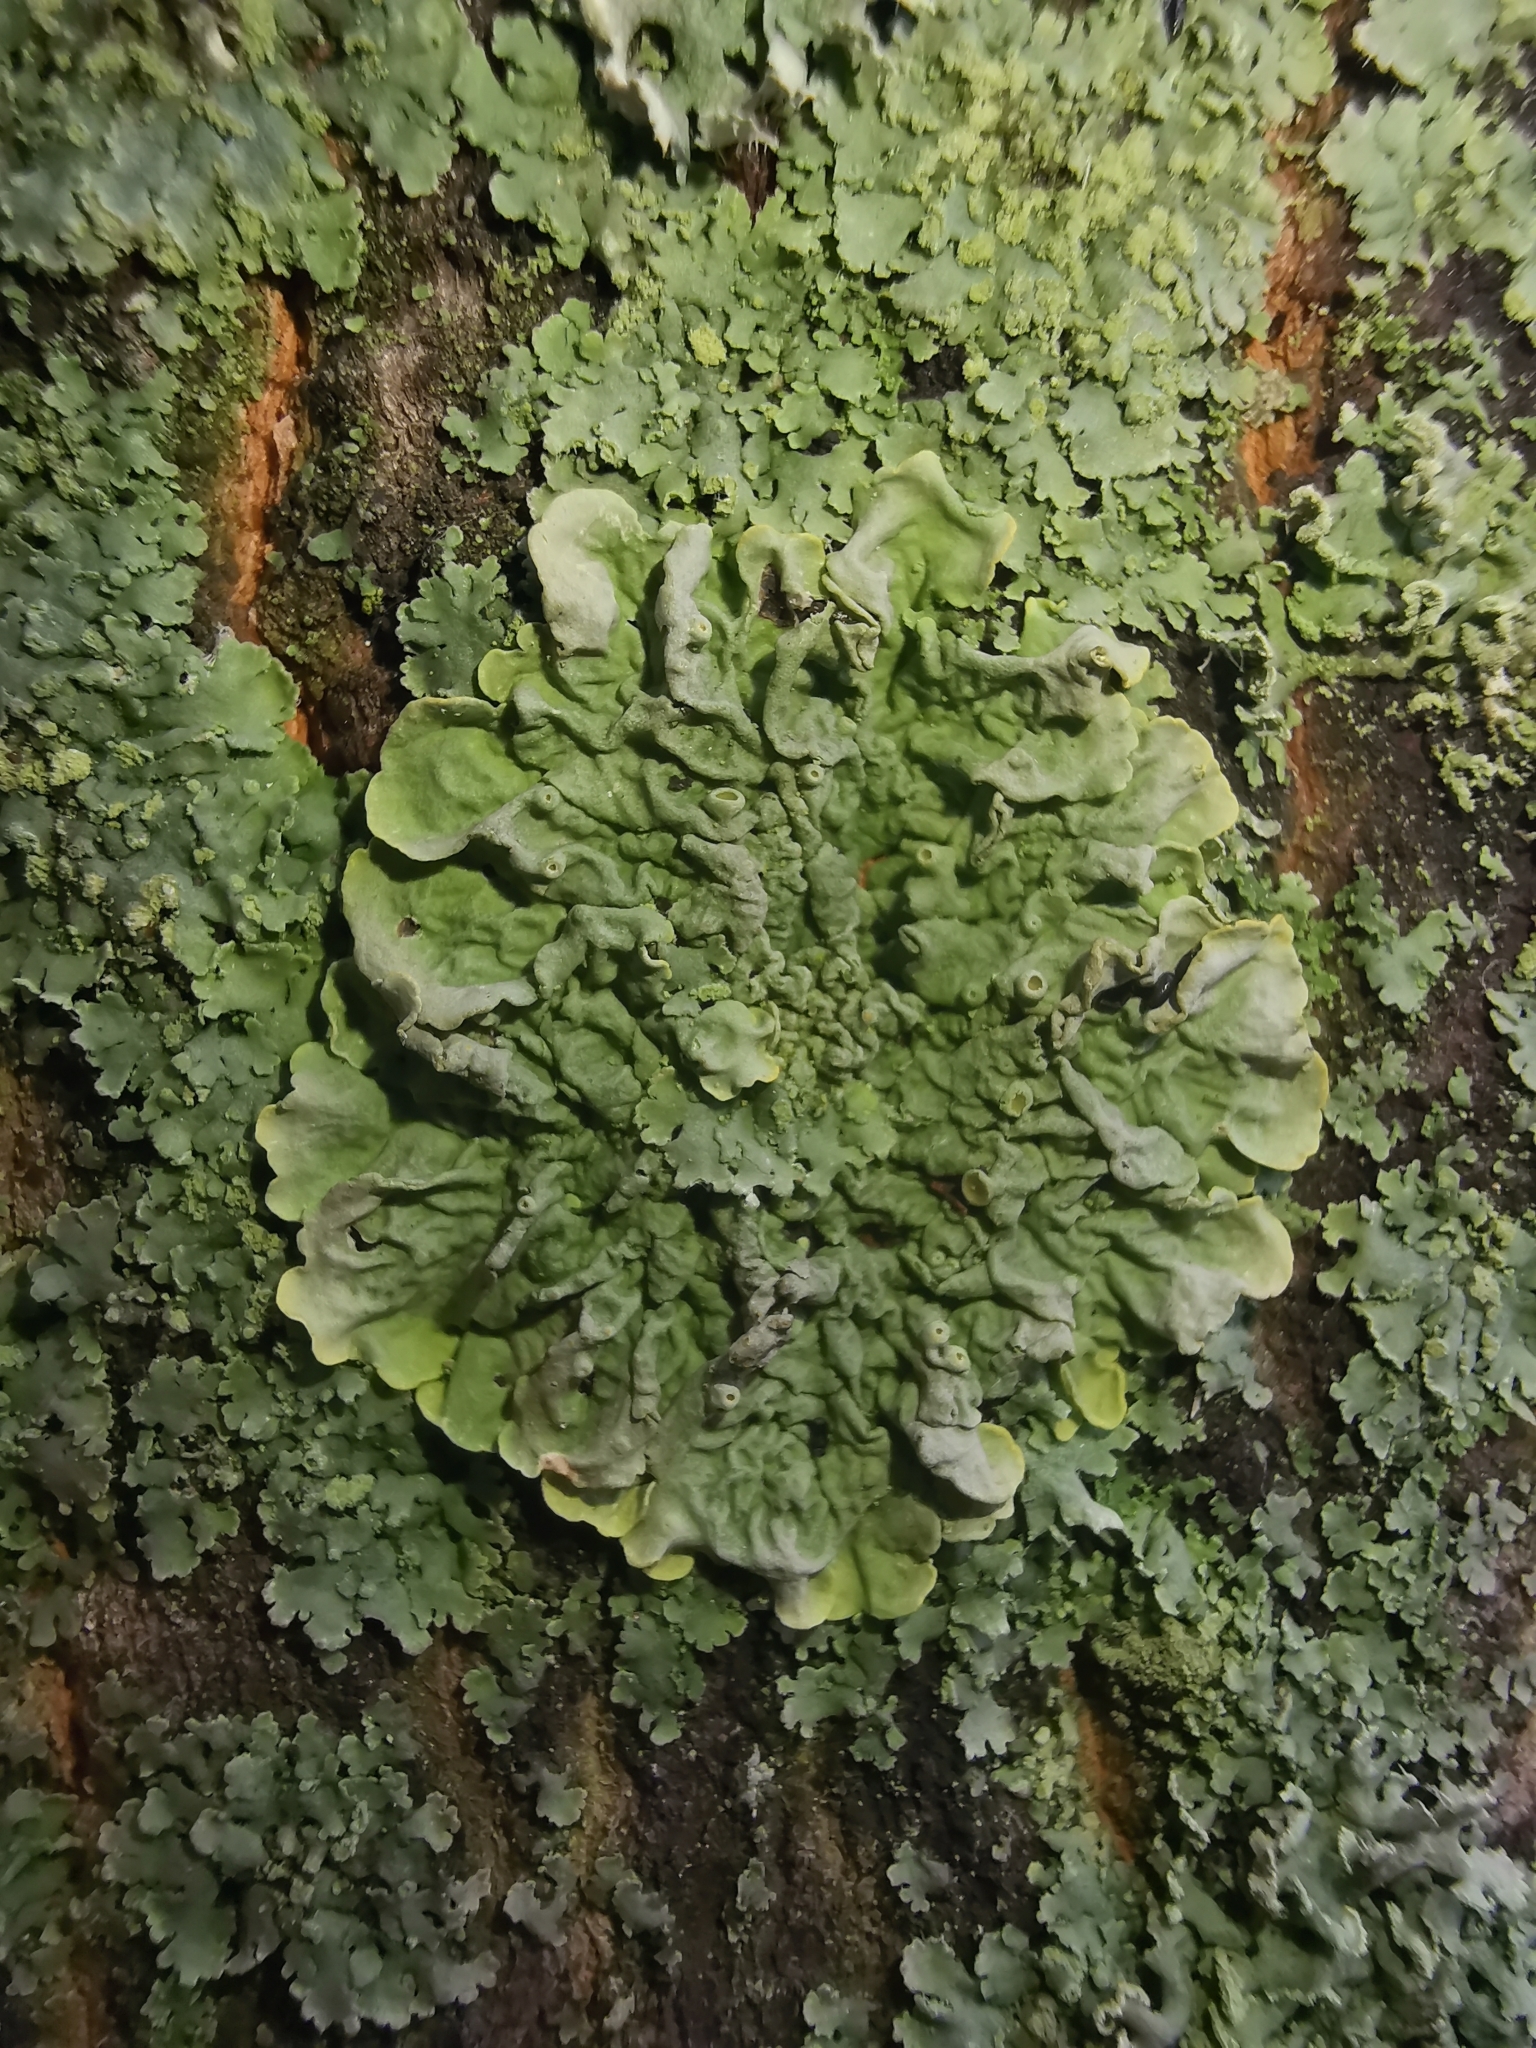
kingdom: Fungi
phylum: Ascomycota
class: Lecanoromycetes
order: Teloschistales
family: Teloschistaceae
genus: Xanthoria
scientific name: Xanthoria parietina
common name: Common orange lichen
